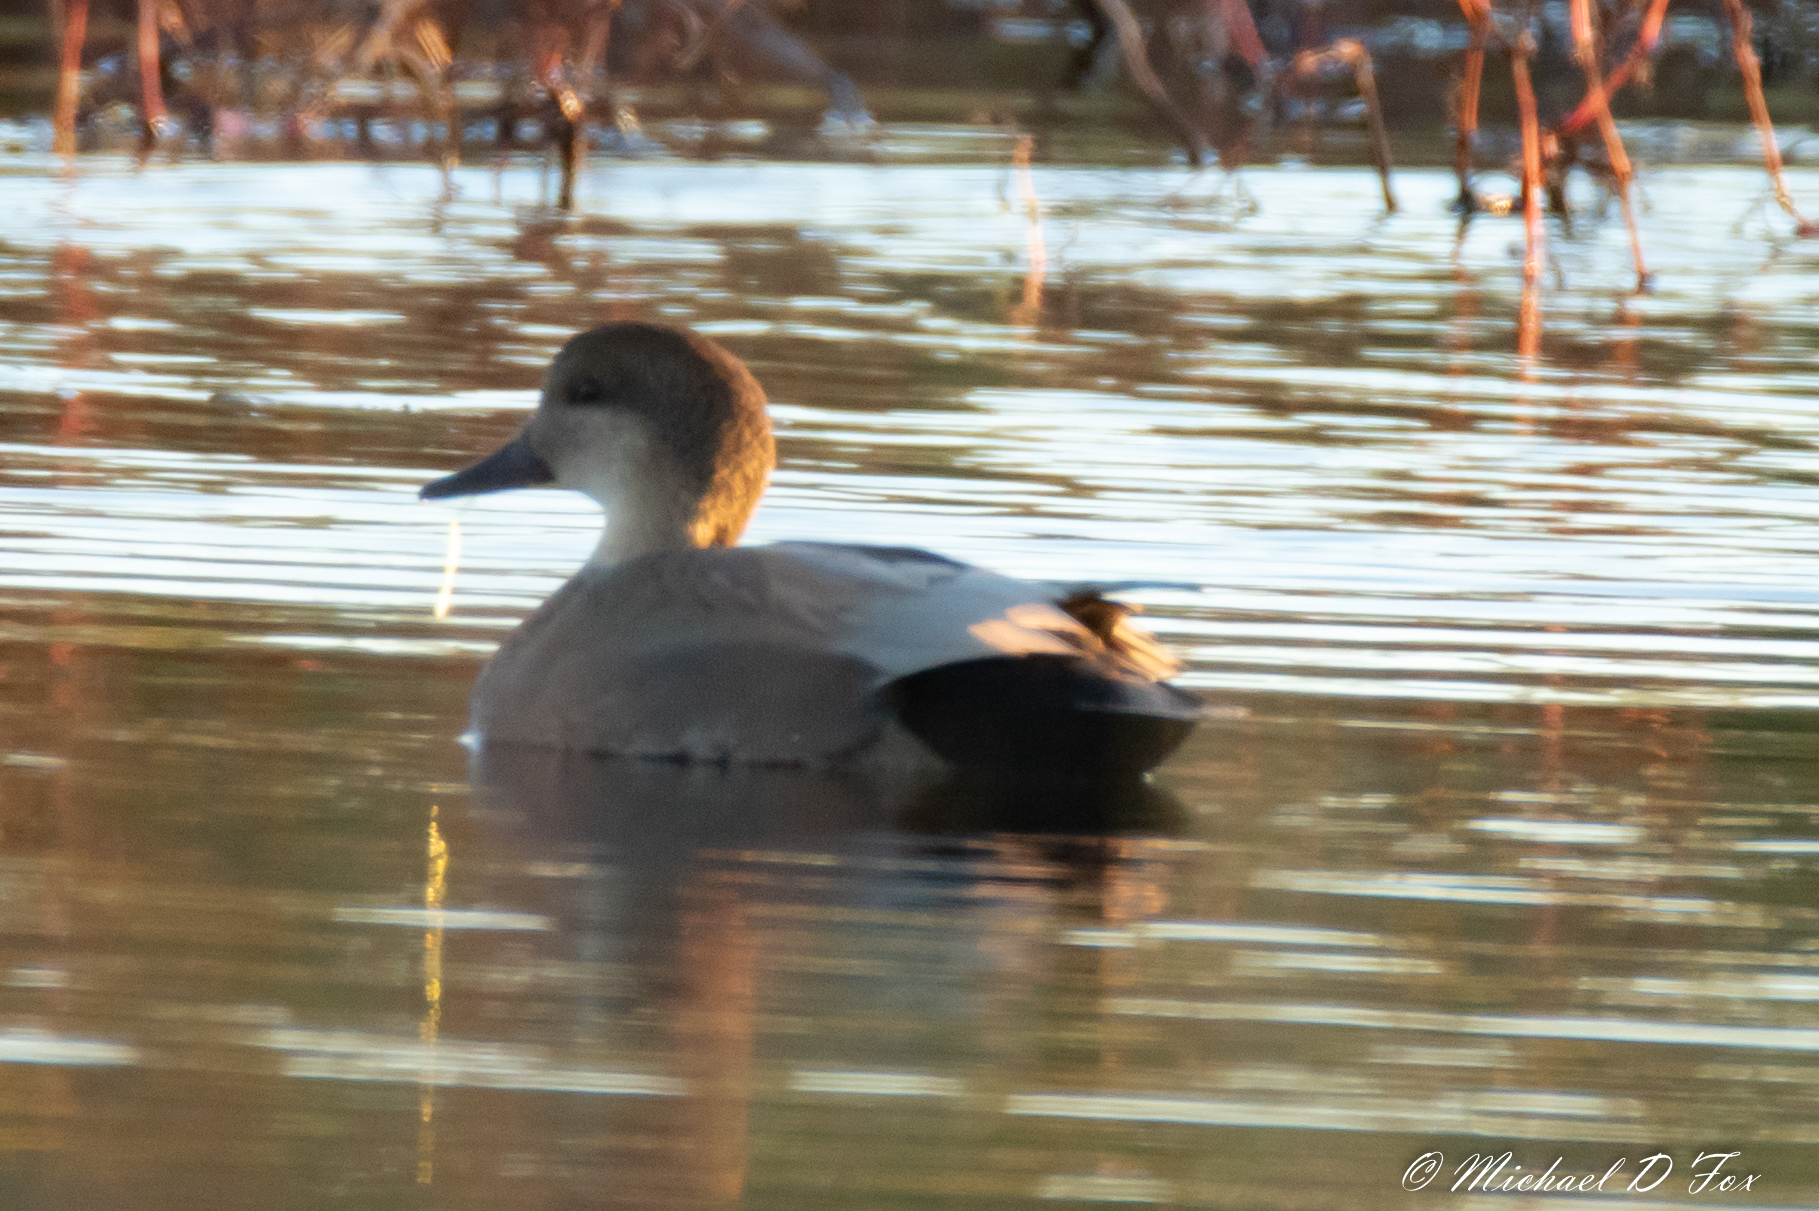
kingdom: Animalia
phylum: Chordata
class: Aves
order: Anseriformes
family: Anatidae
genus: Mareca
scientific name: Mareca strepera
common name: Gadwall
